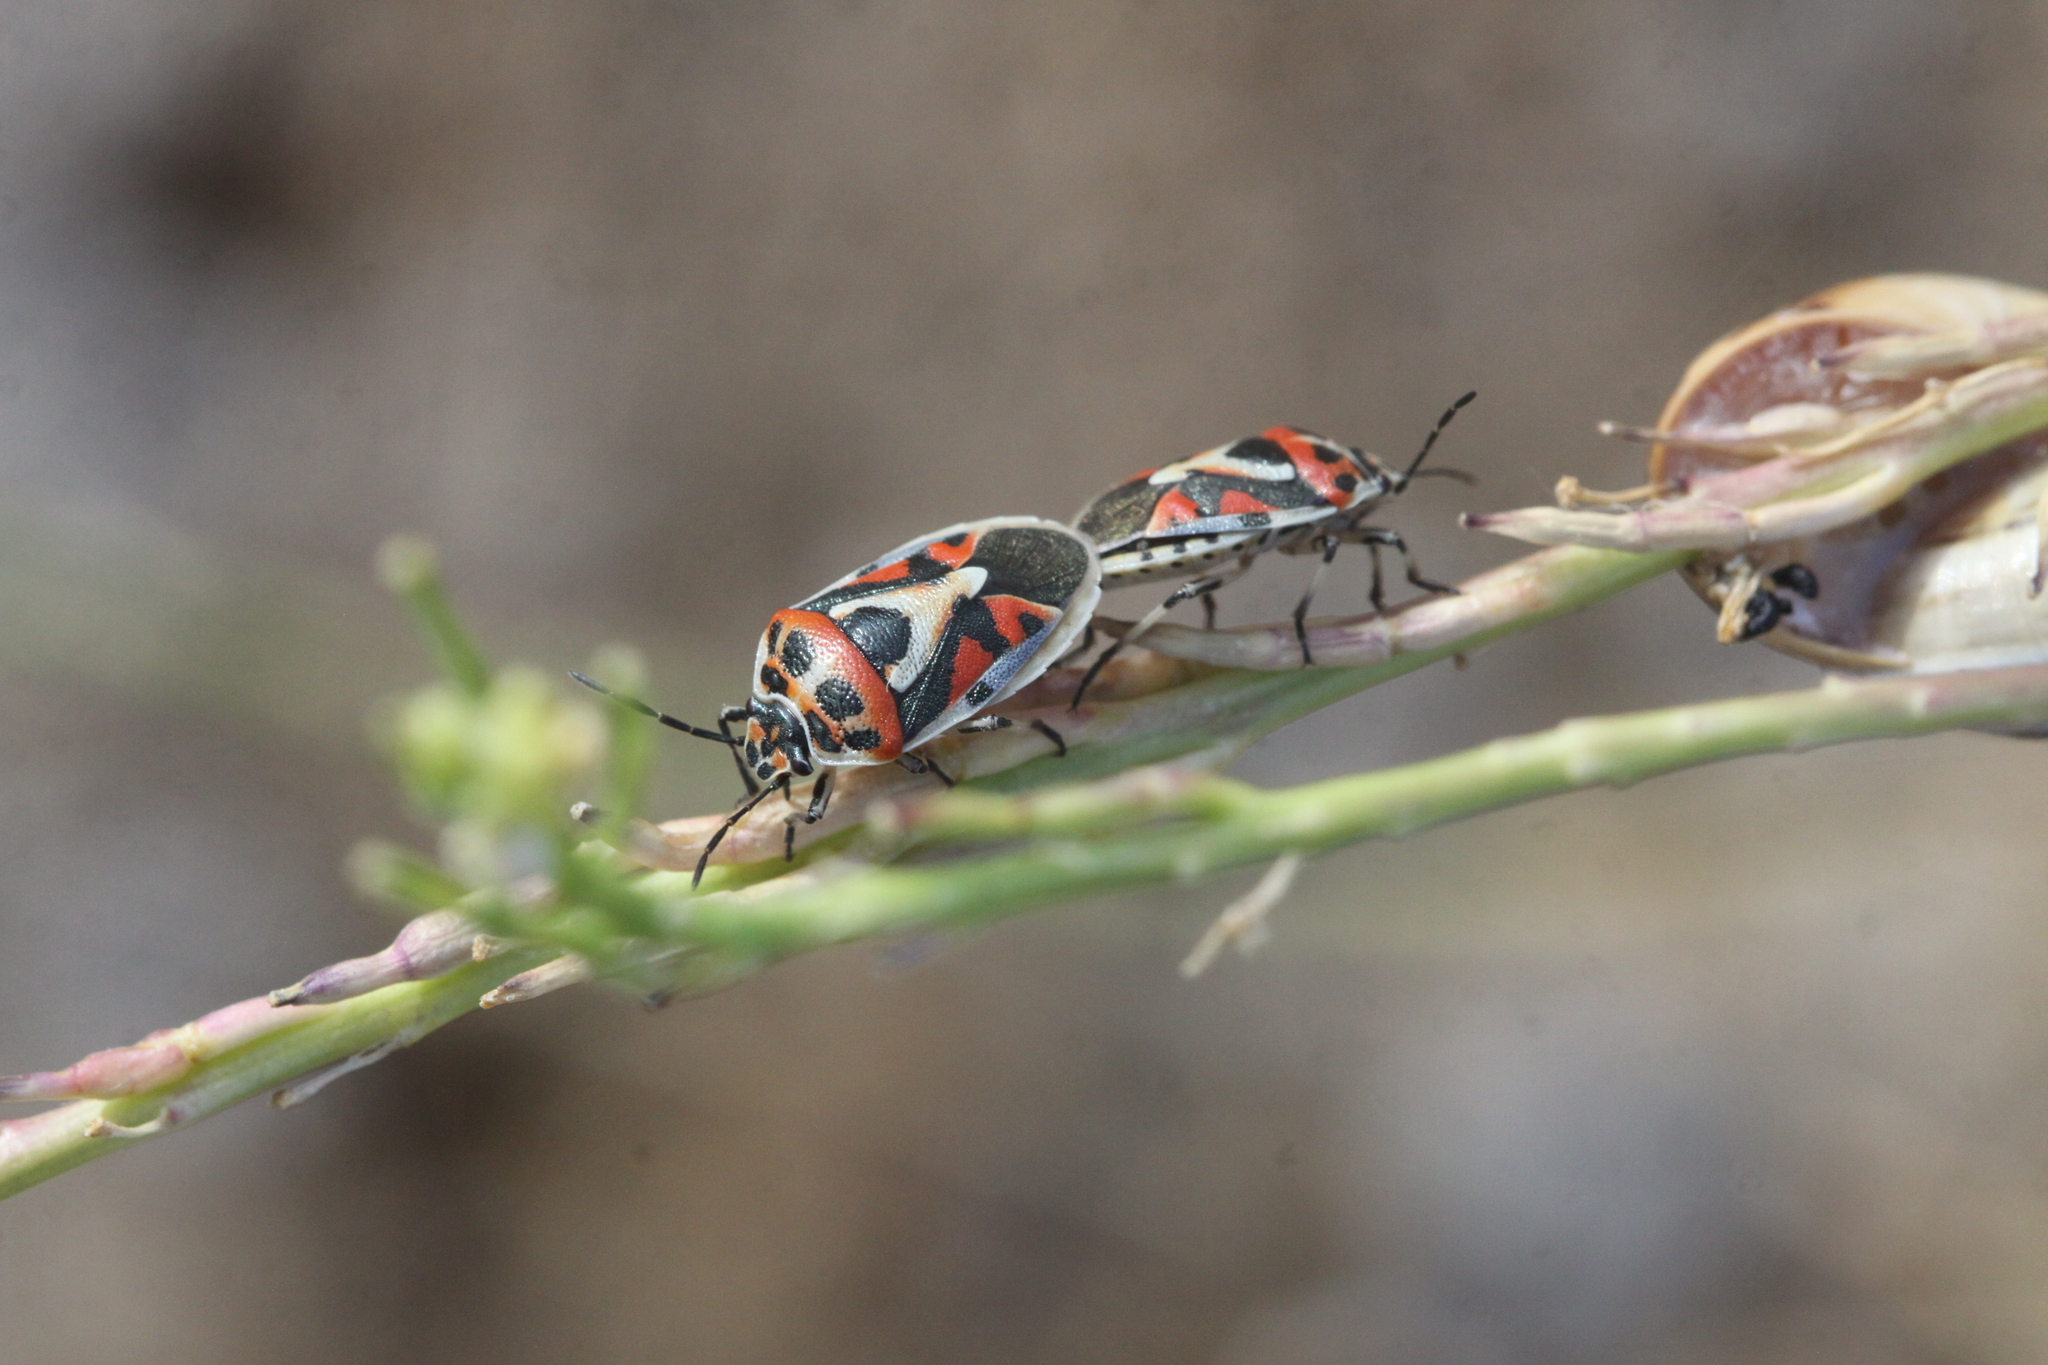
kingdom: Animalia
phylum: Arthropoda
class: Insecta
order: Hemiptera
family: Pentatomidae
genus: Eurydema
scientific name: Eurydema ornata
